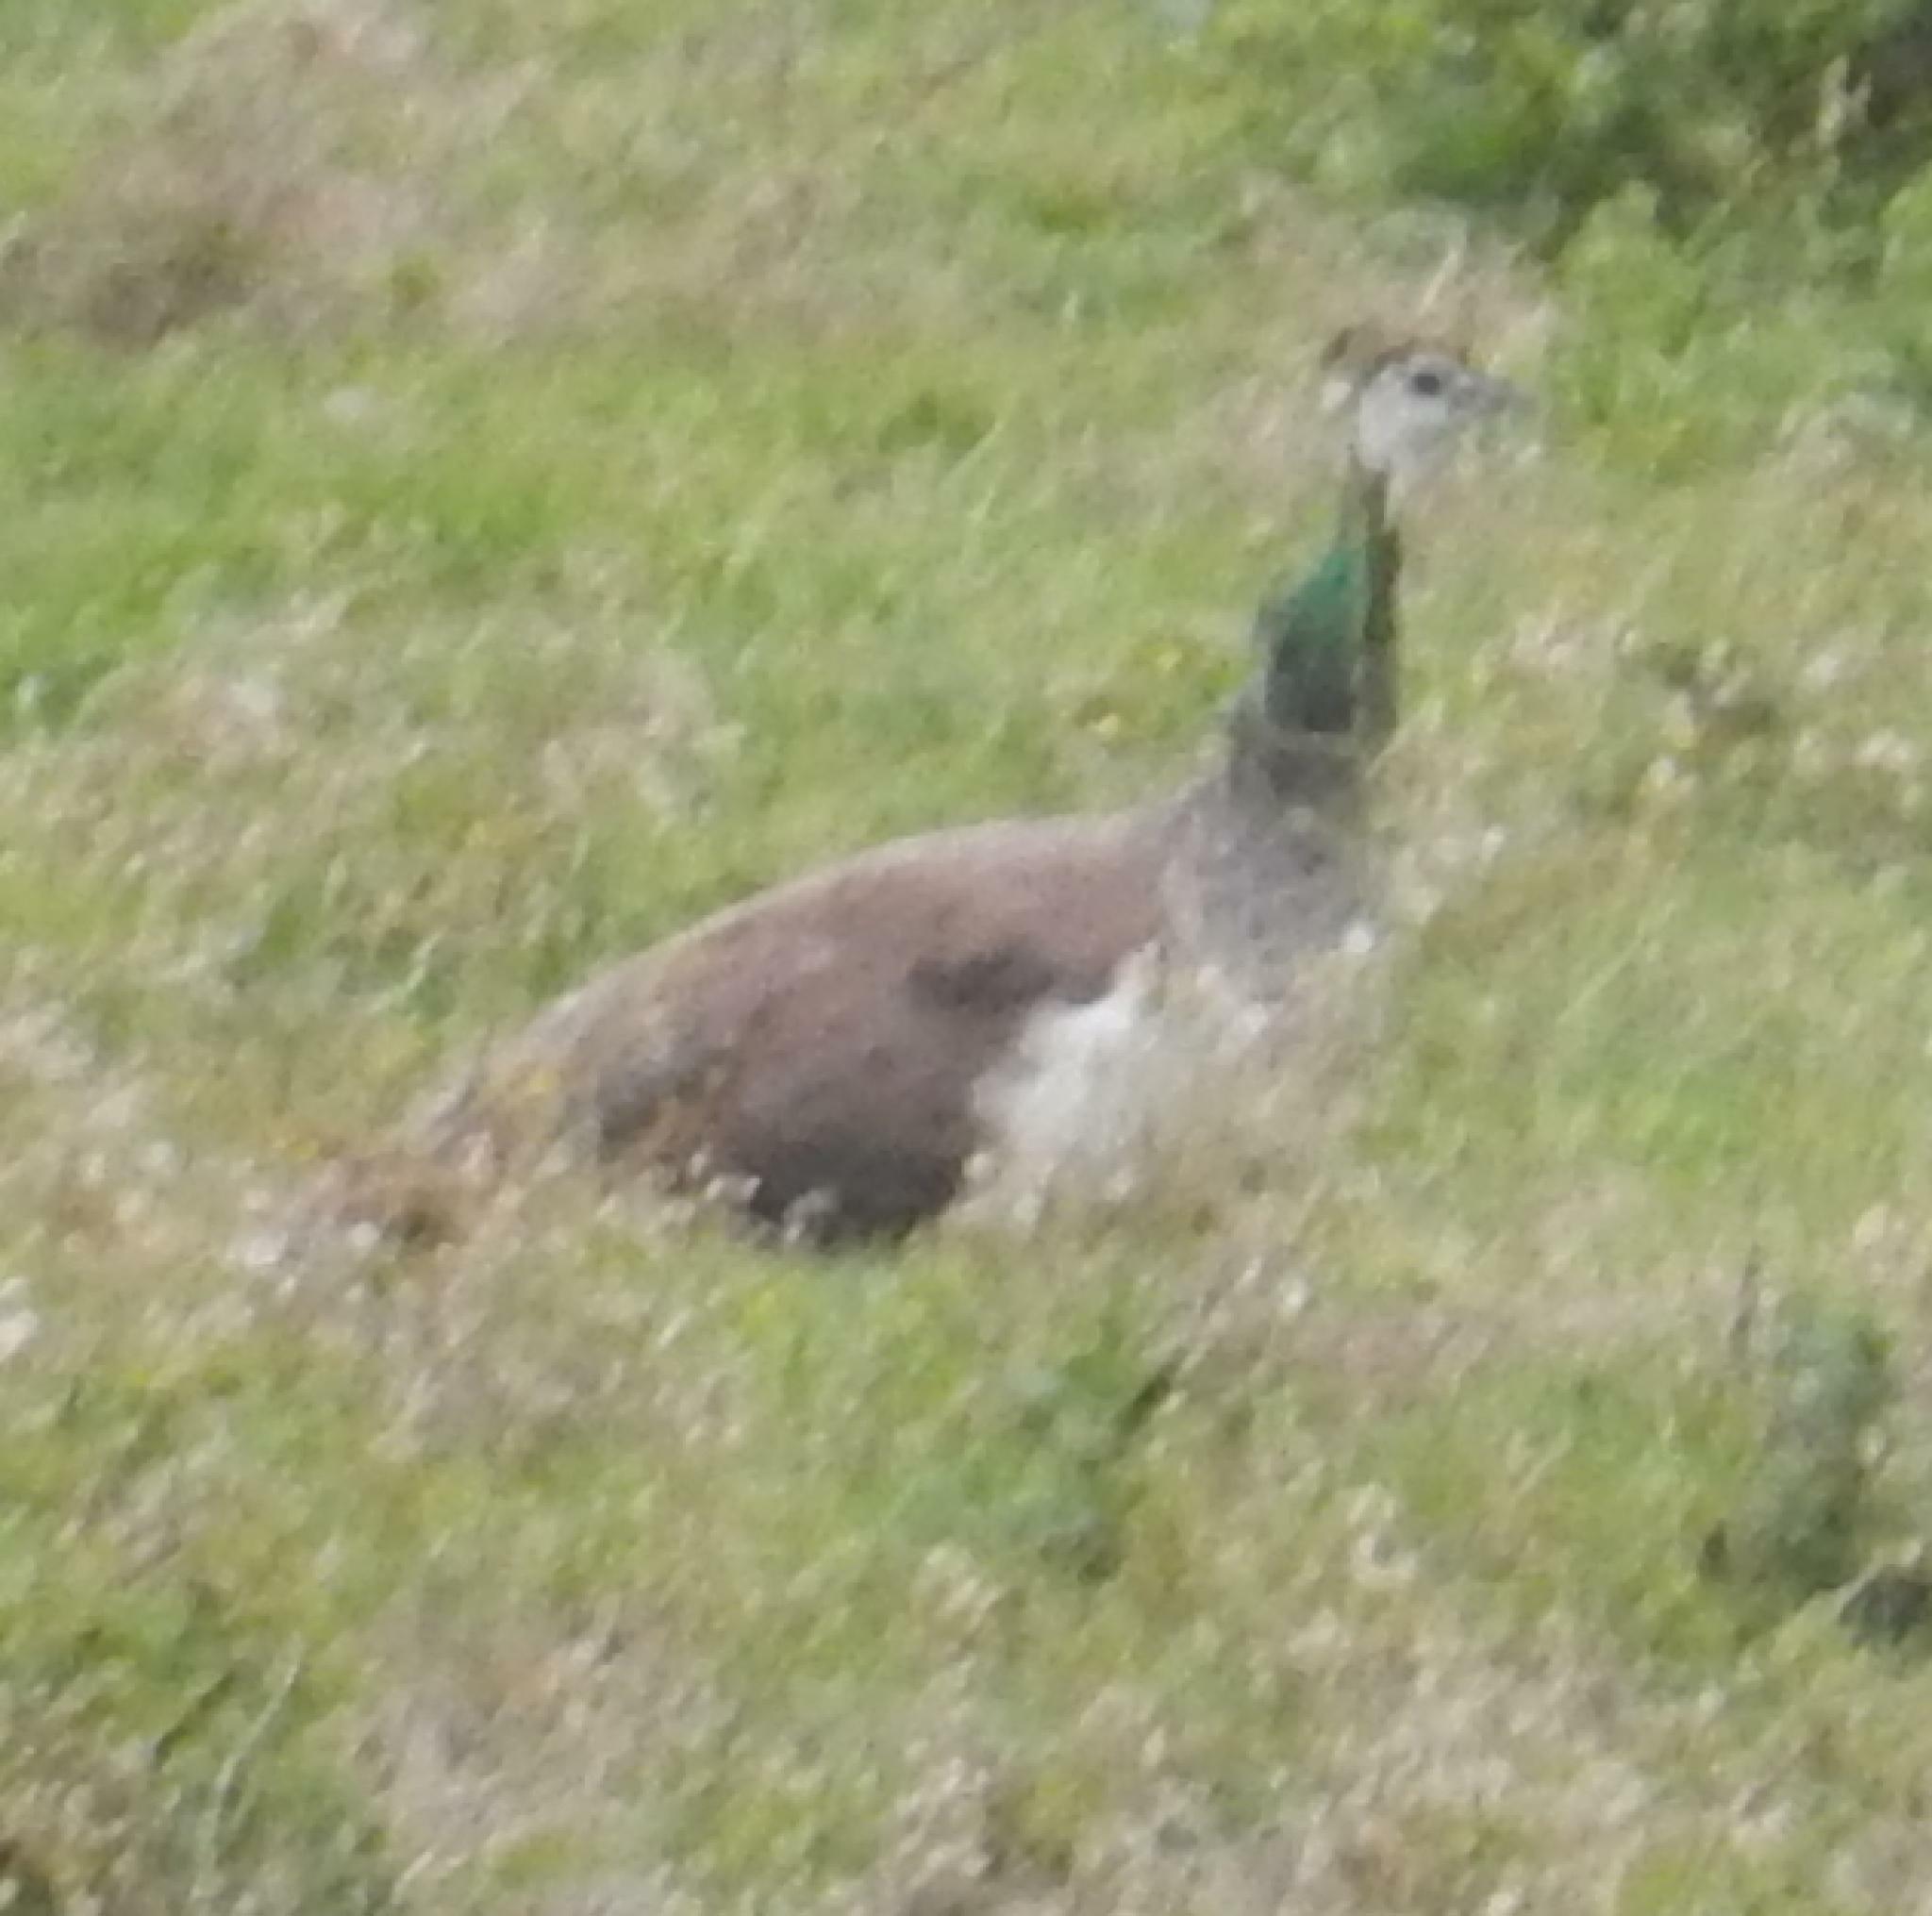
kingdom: Animalia
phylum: Chordata
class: Aves
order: Galliformes
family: Phasianidae
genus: Pavo
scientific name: Pavo cristatus
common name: Indian peafowl
